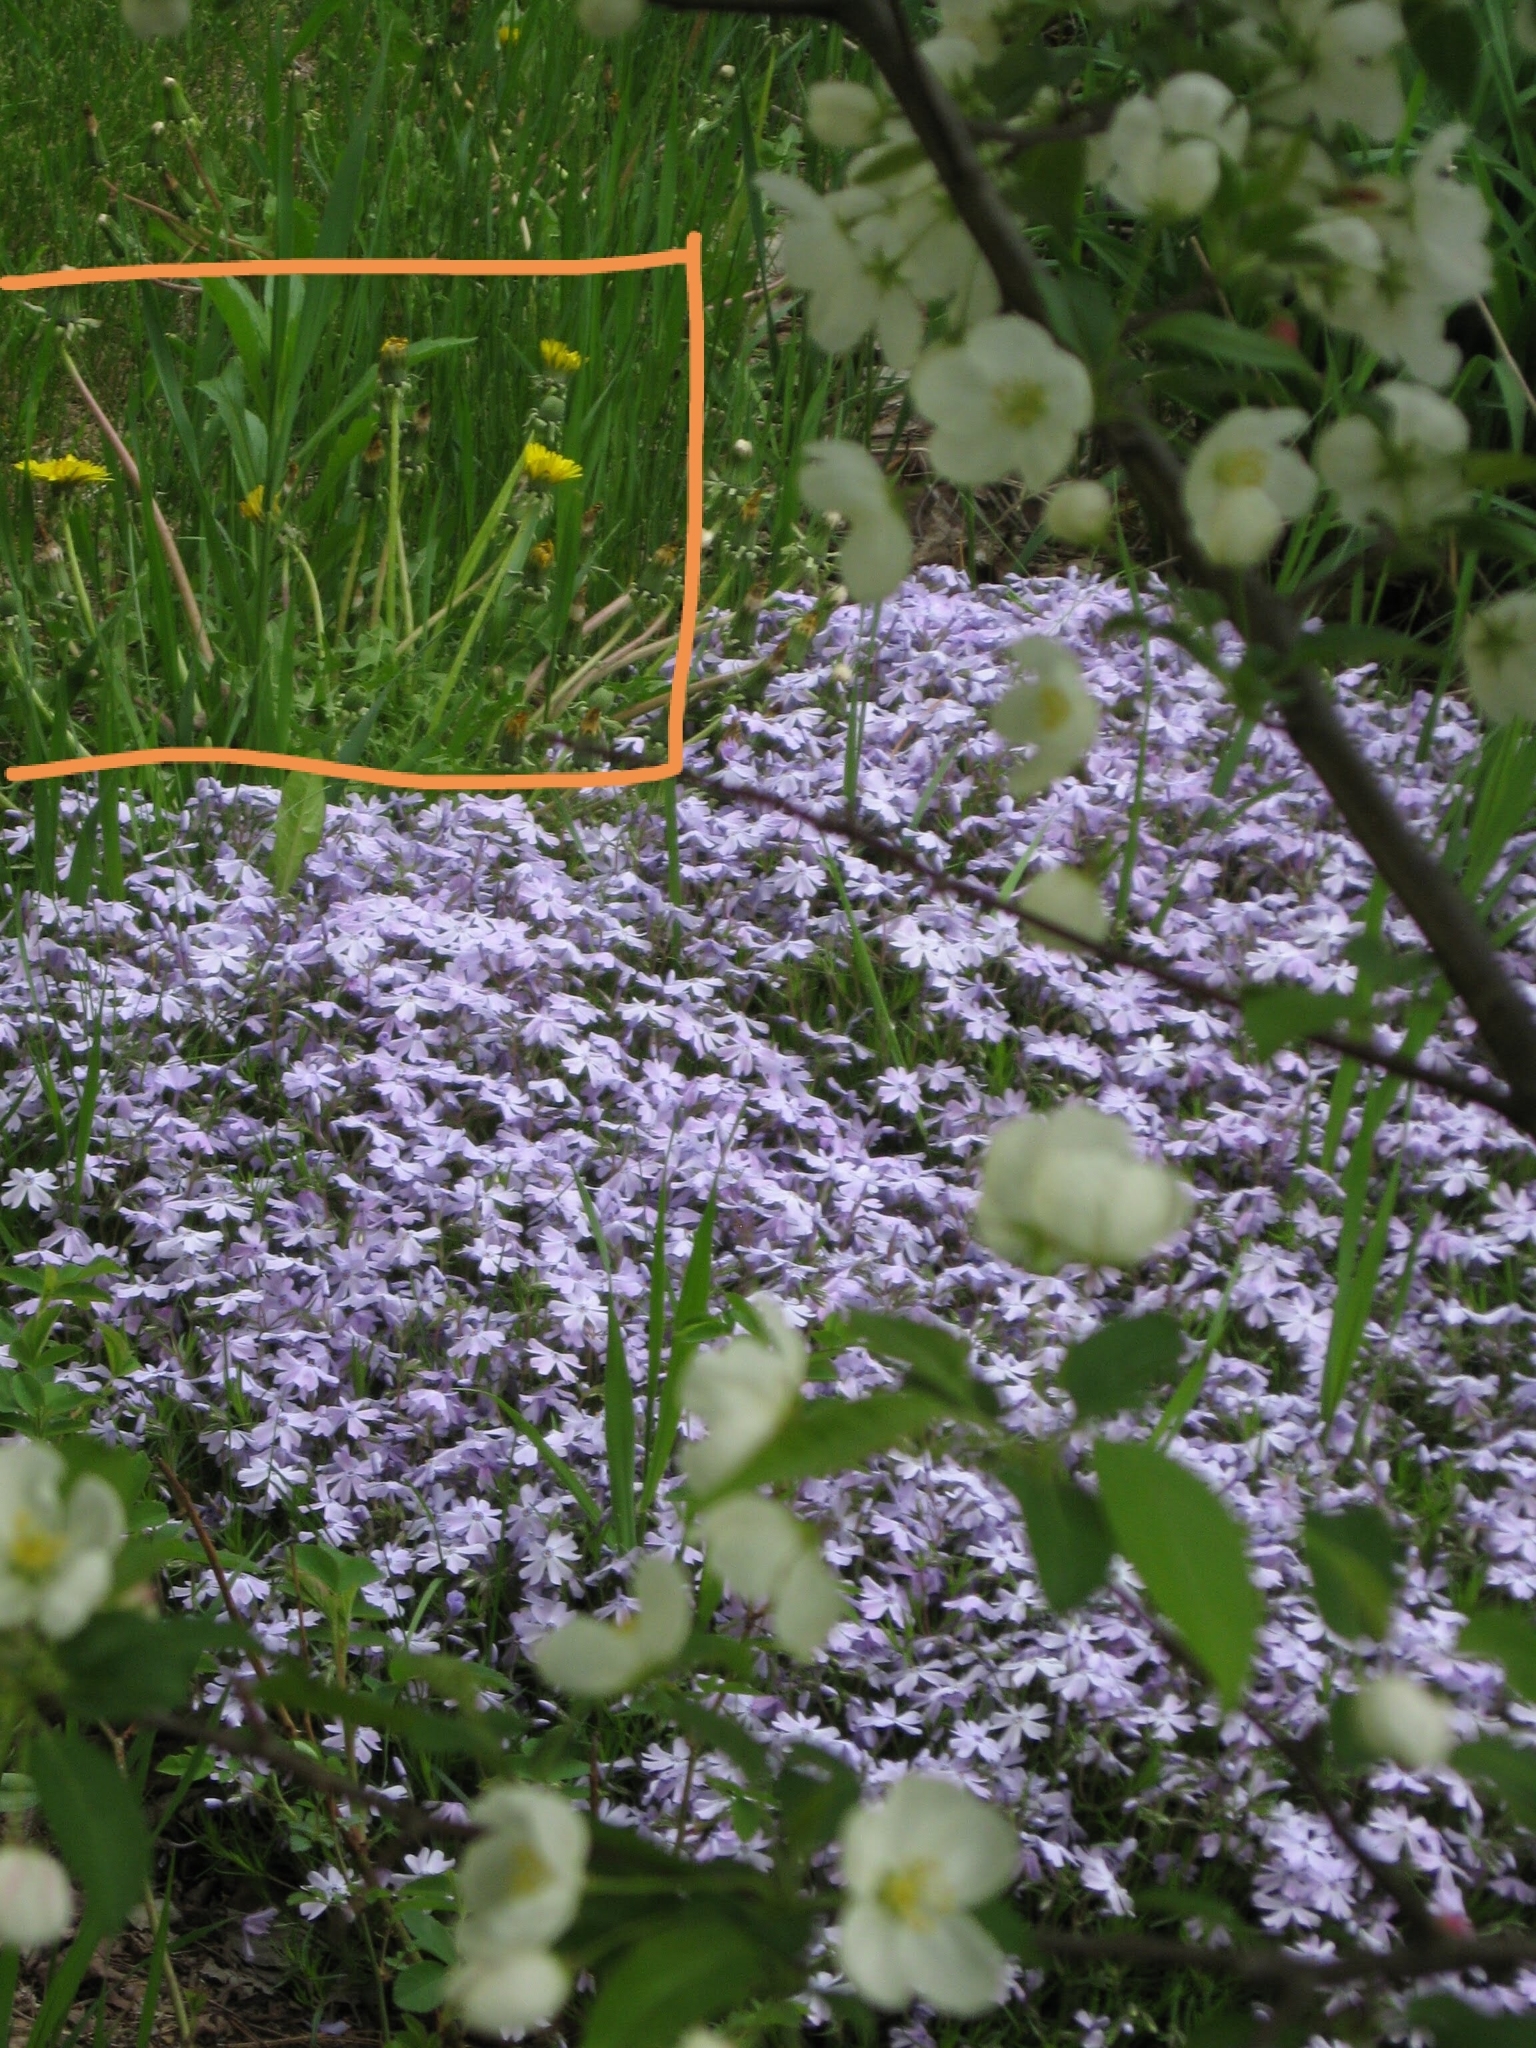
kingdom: Plantae
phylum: Tracheophyta
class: Magnoliopsida
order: Asterales
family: Asteraceae
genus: Taraxacum
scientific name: Taraxacum officinale
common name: Common dandelion
